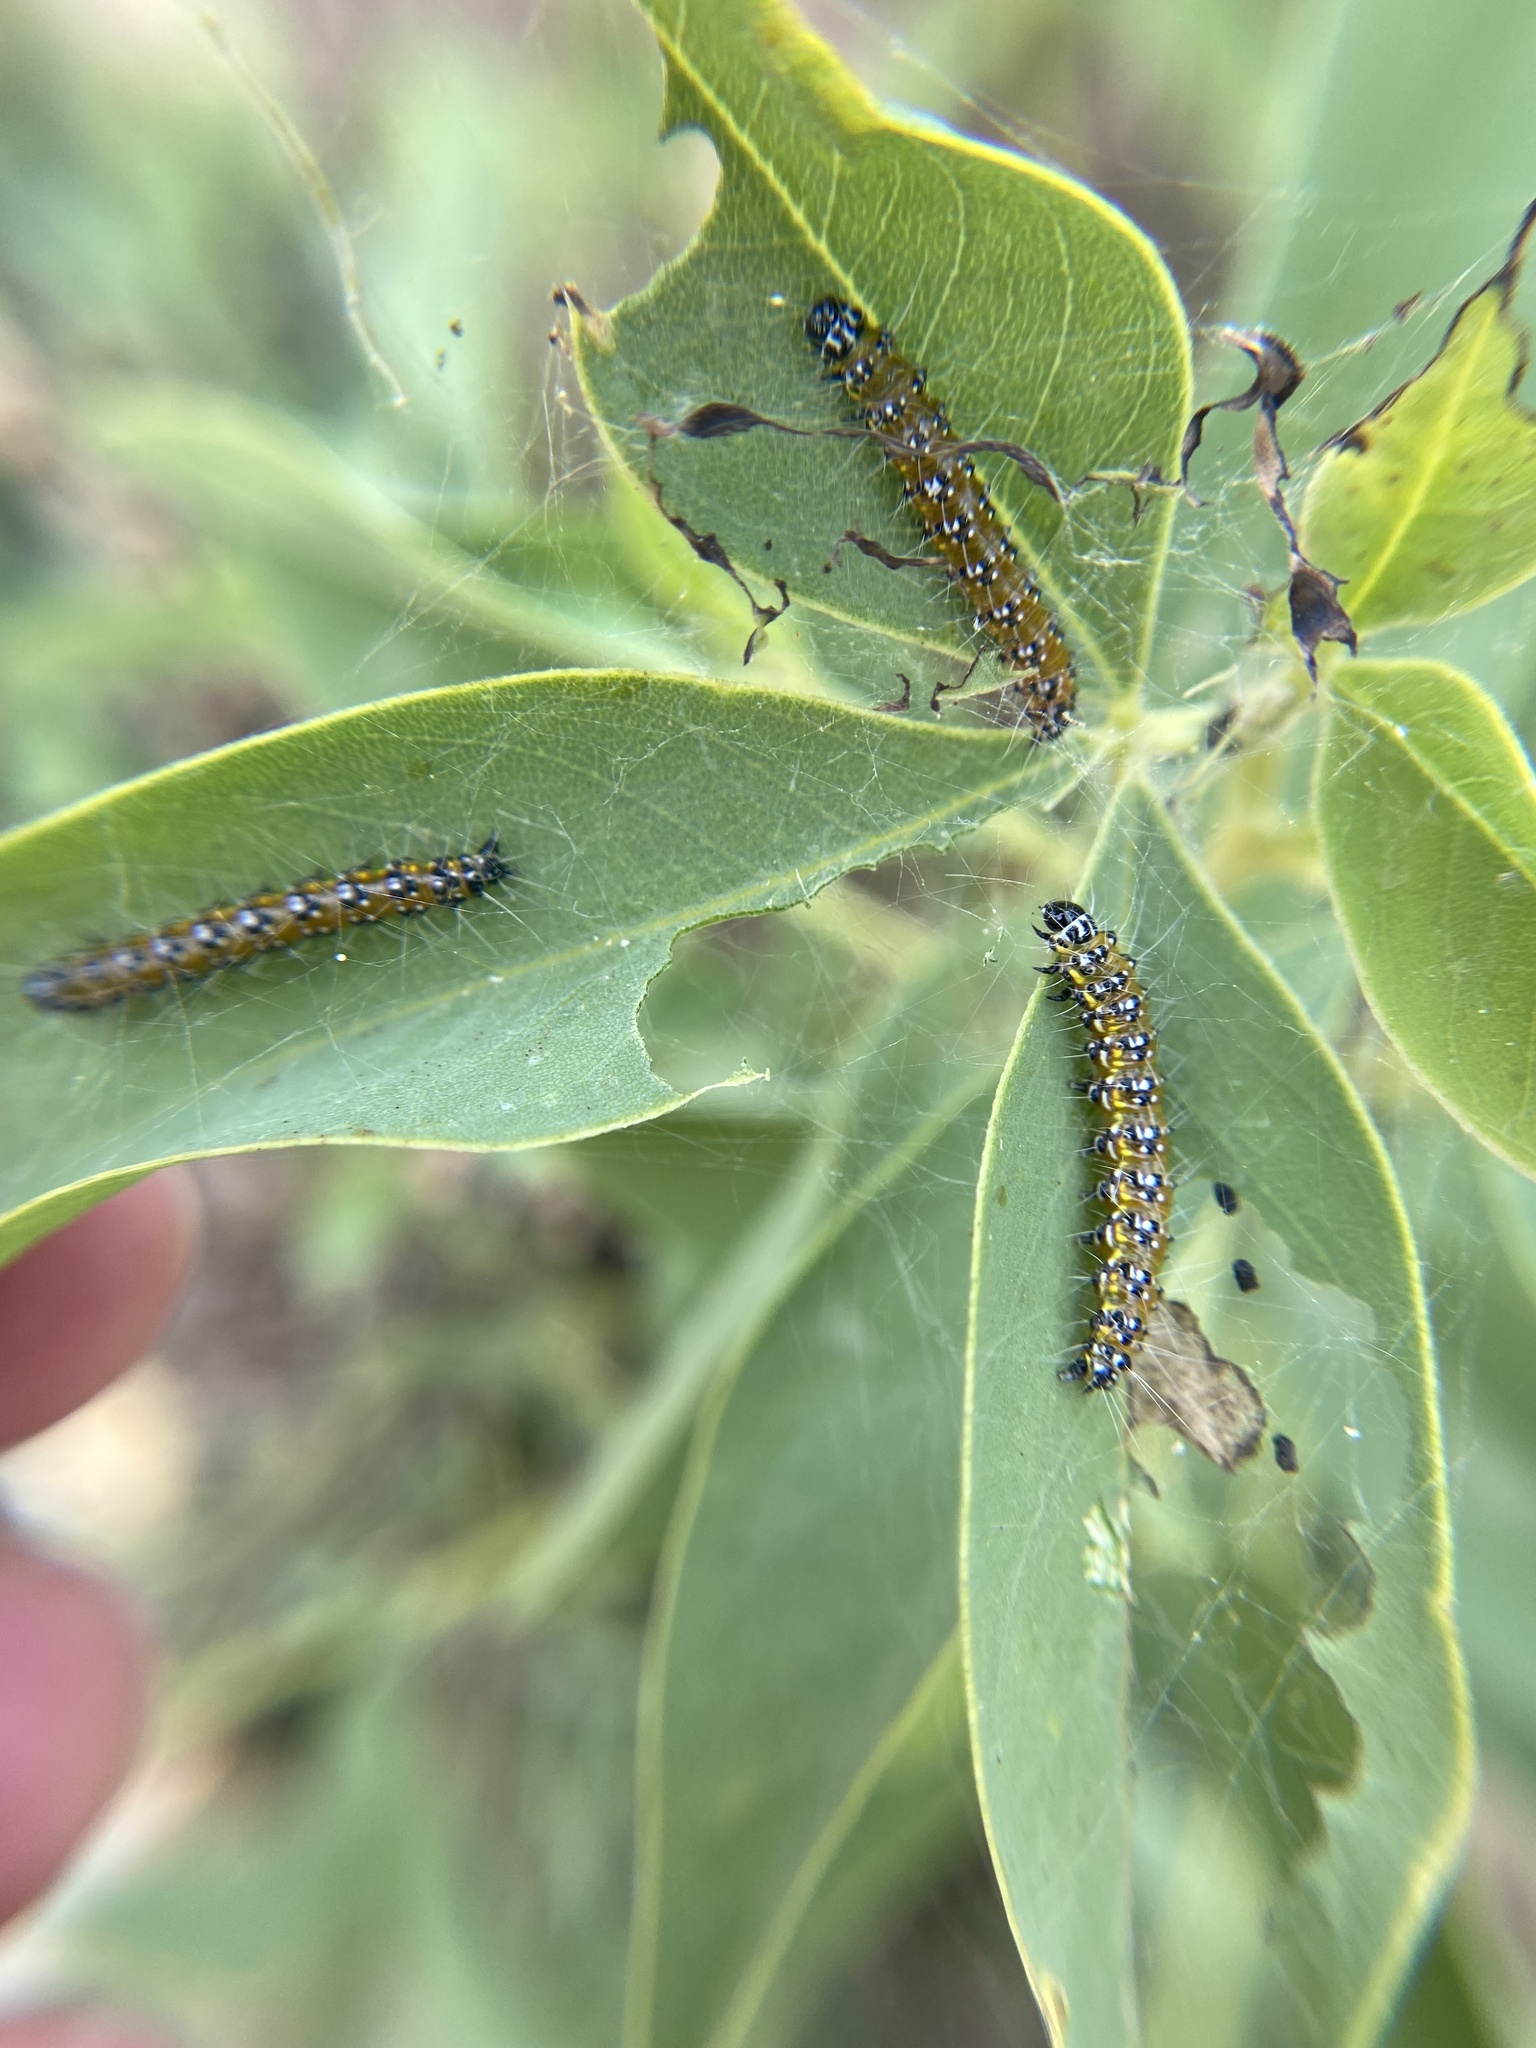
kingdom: Animalia
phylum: Arthropoda
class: Insecta
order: Lepidoptera
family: Crambidae
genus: Uresiphita
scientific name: Uresiphita reversalis
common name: Genista broom moth
